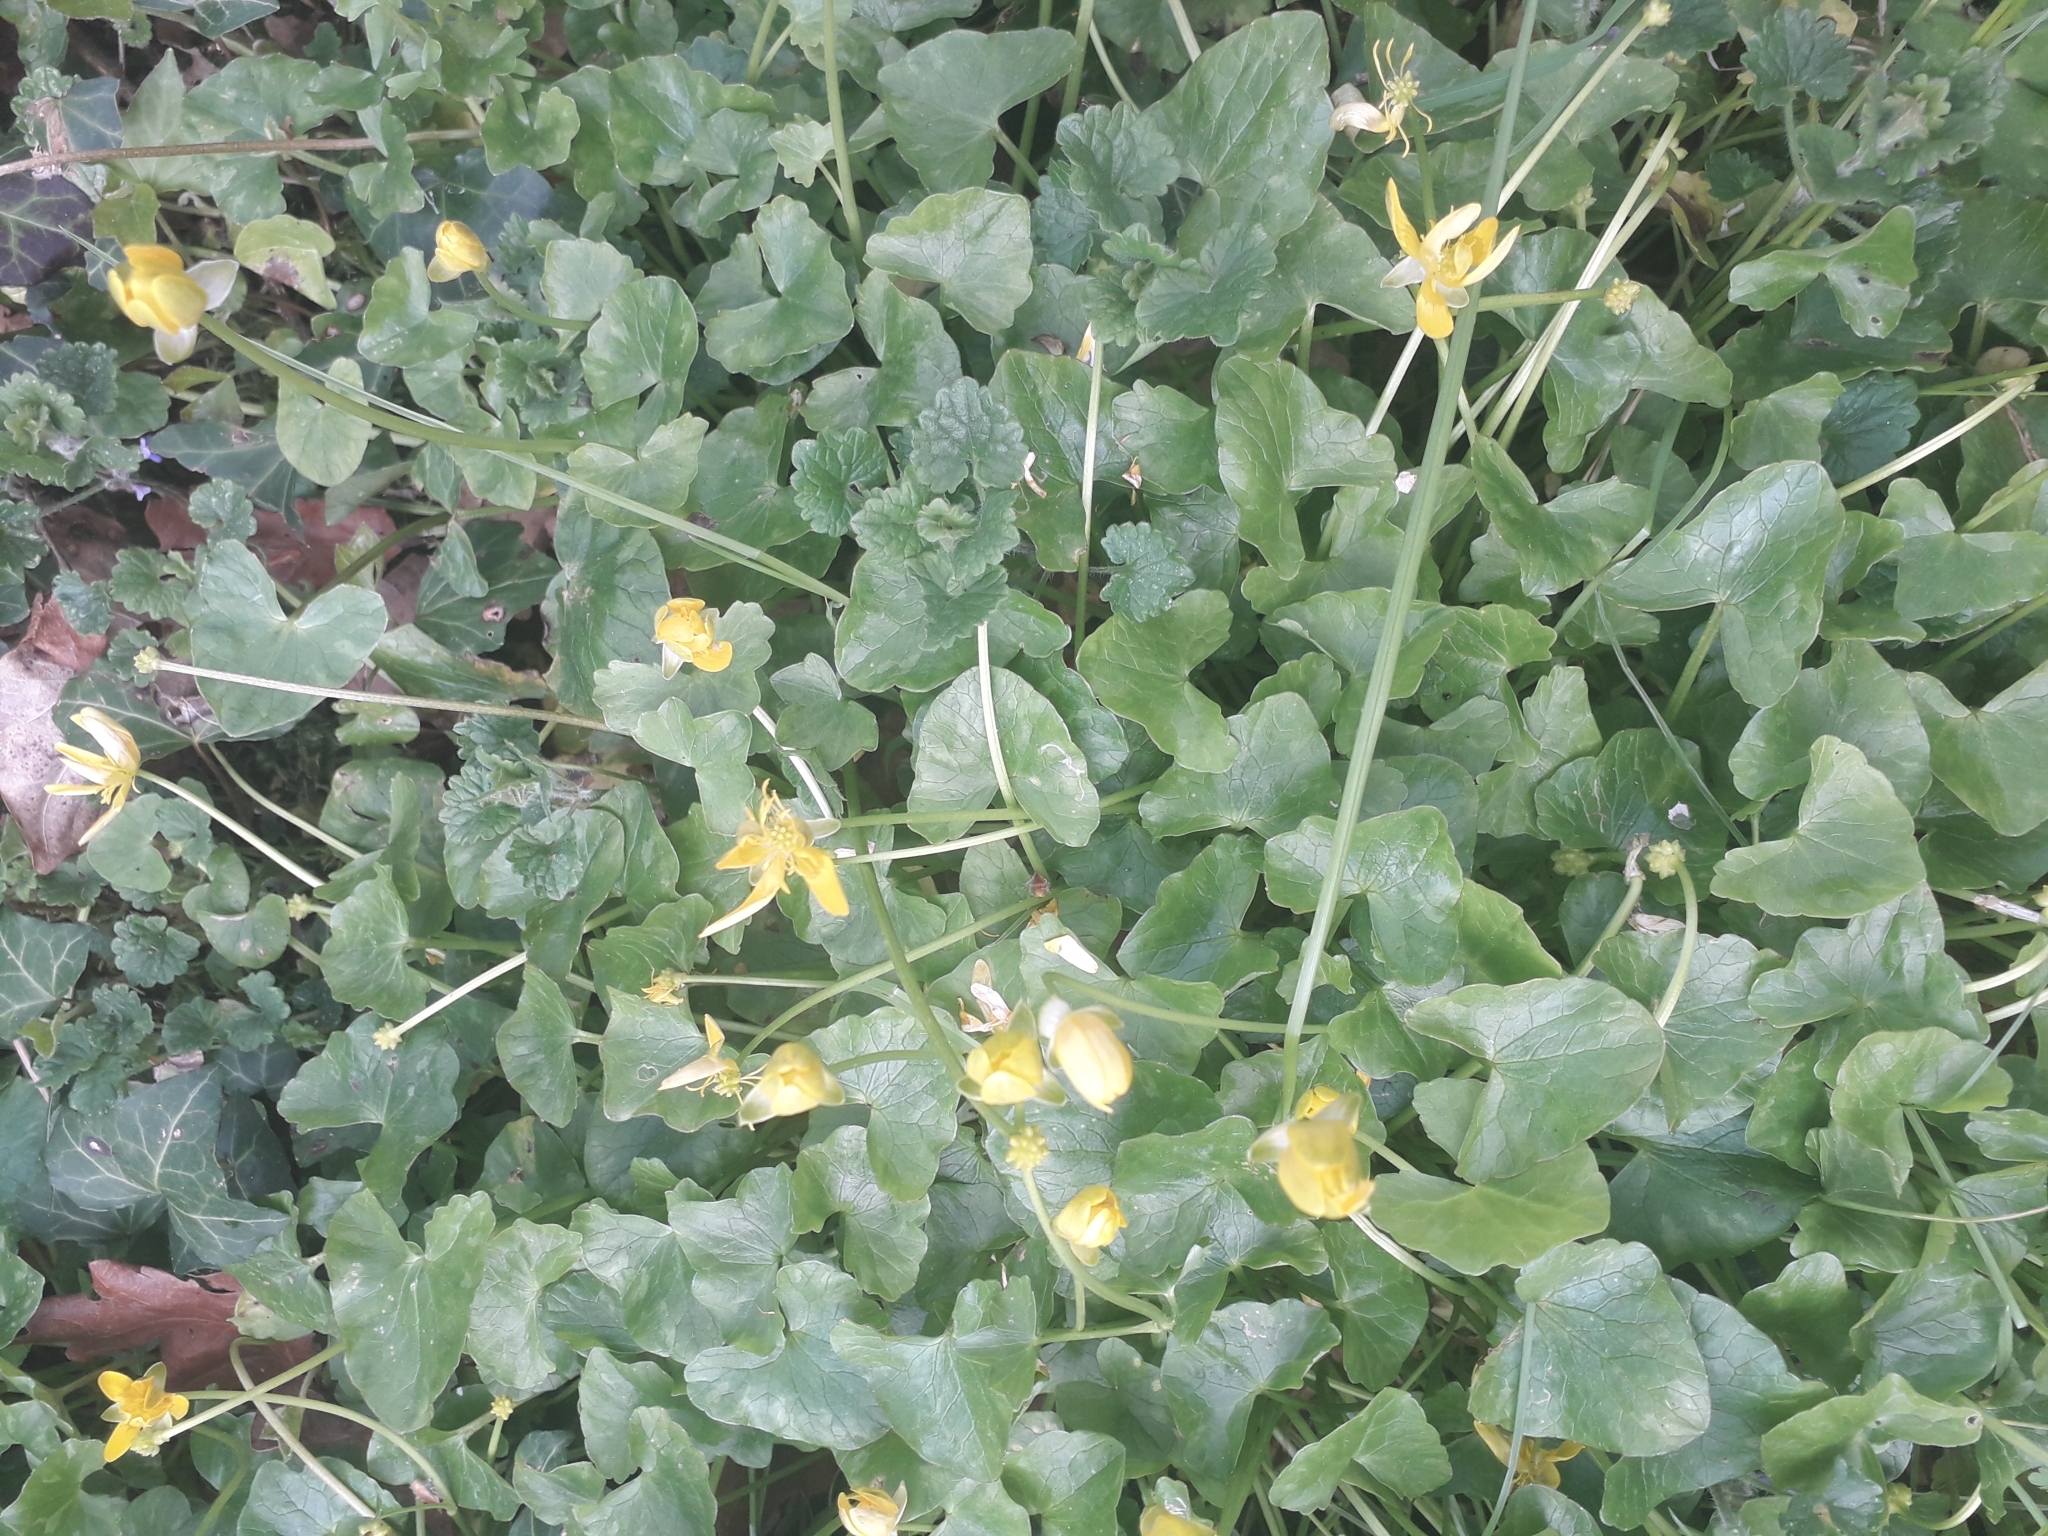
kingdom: Plantae
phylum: Tracheophyta
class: Magnoliopsida
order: Ranunculales
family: Ranunculaceae
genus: Ficaria
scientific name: Ficaria verna
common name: Lesser celandine
